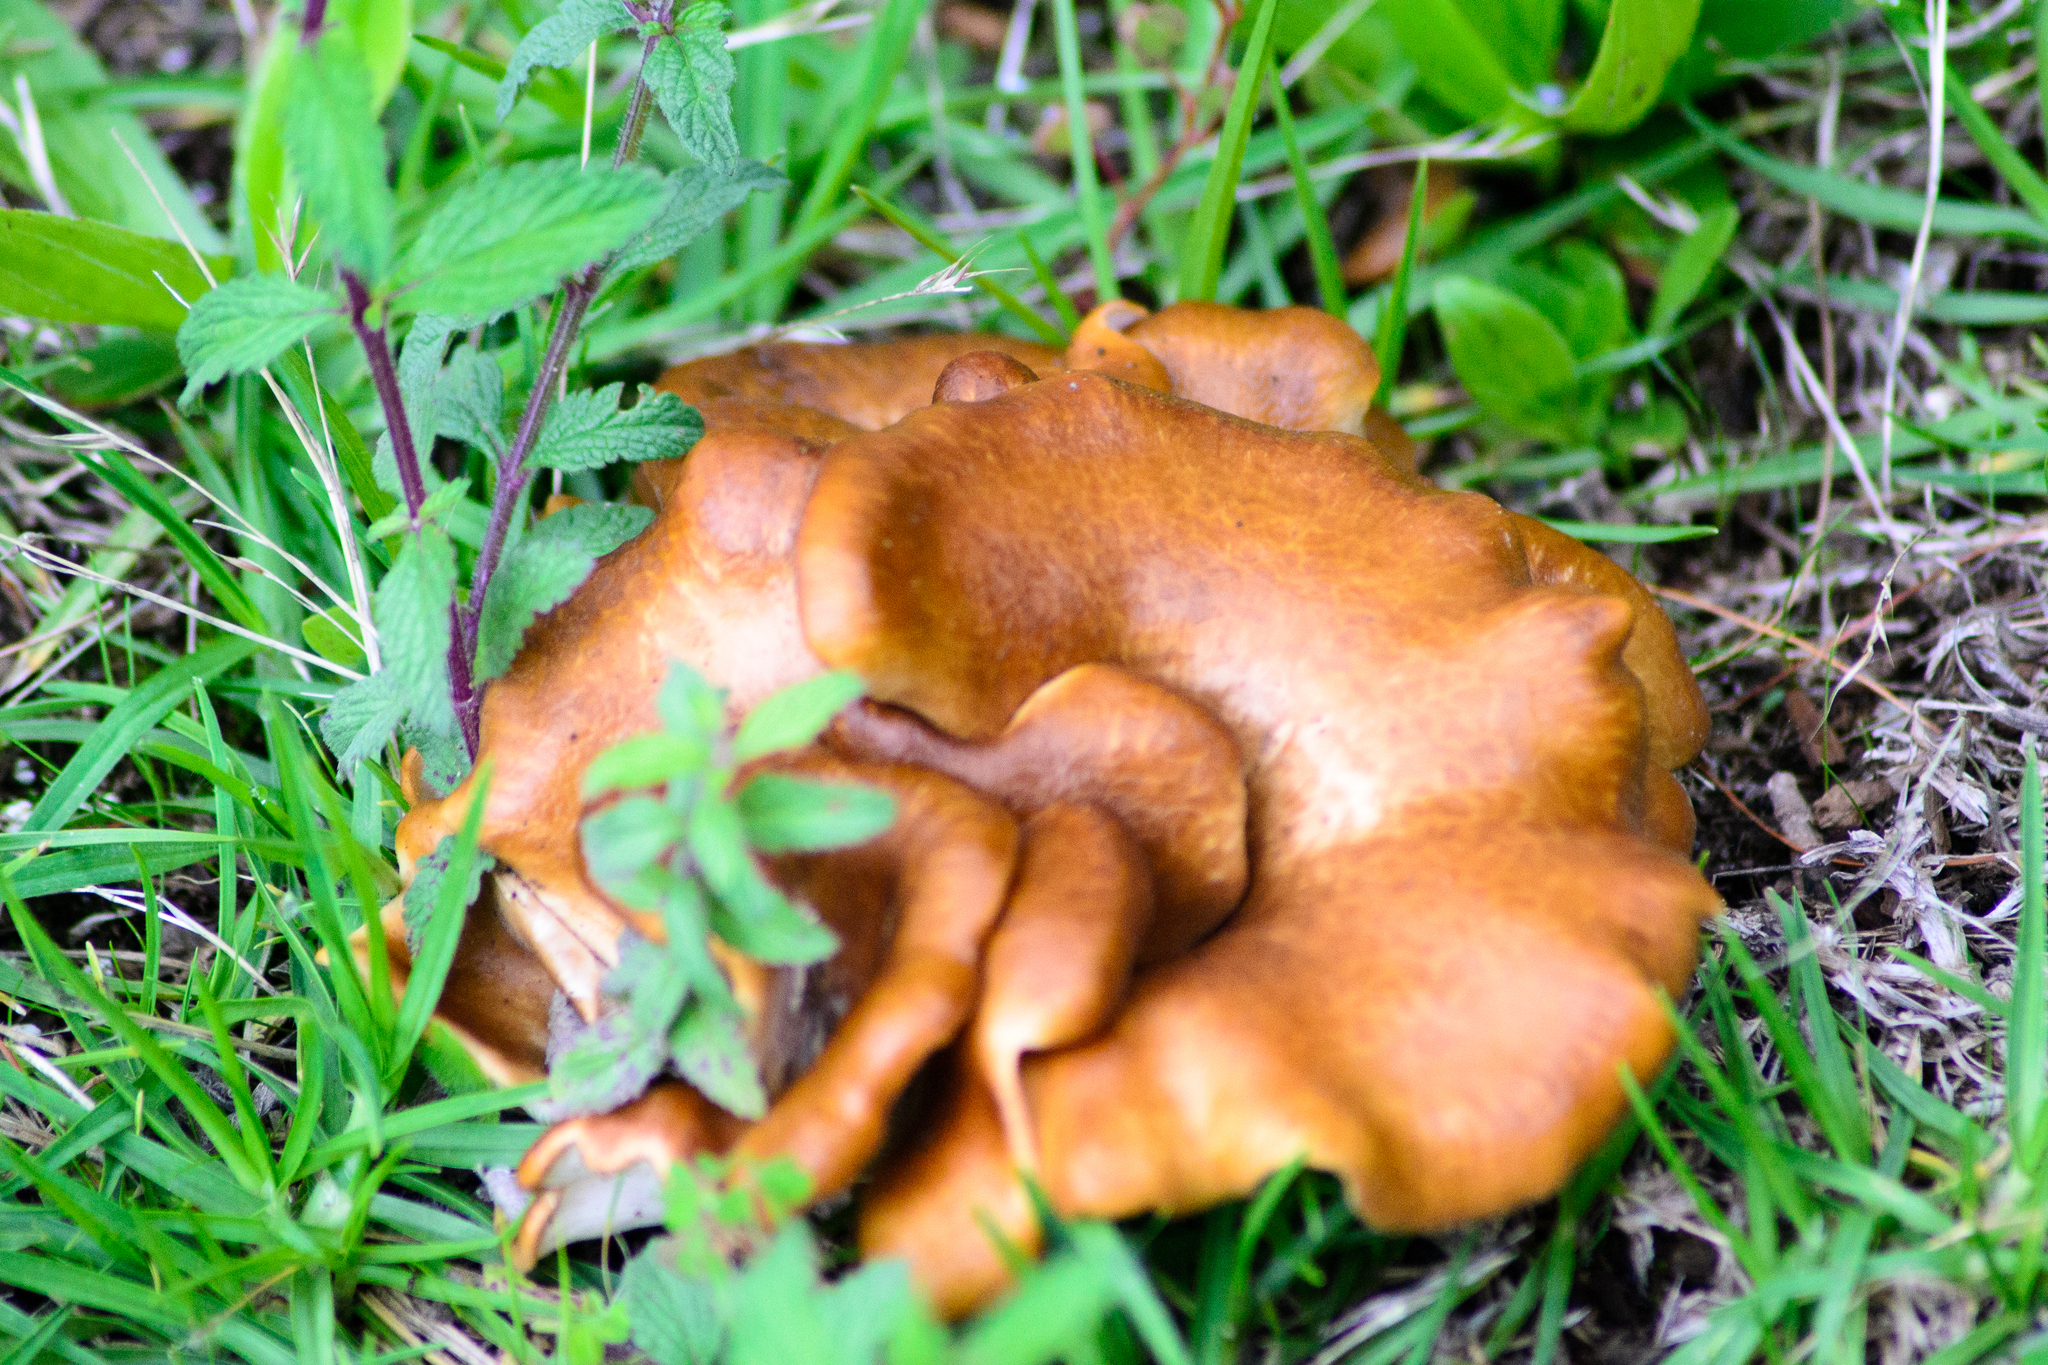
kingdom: Fungi
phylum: Basidiomycota
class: Agaricomycetes
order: Agaricales
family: Omphalotaceae
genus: Omphalotus
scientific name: Omphalotus subilludens
